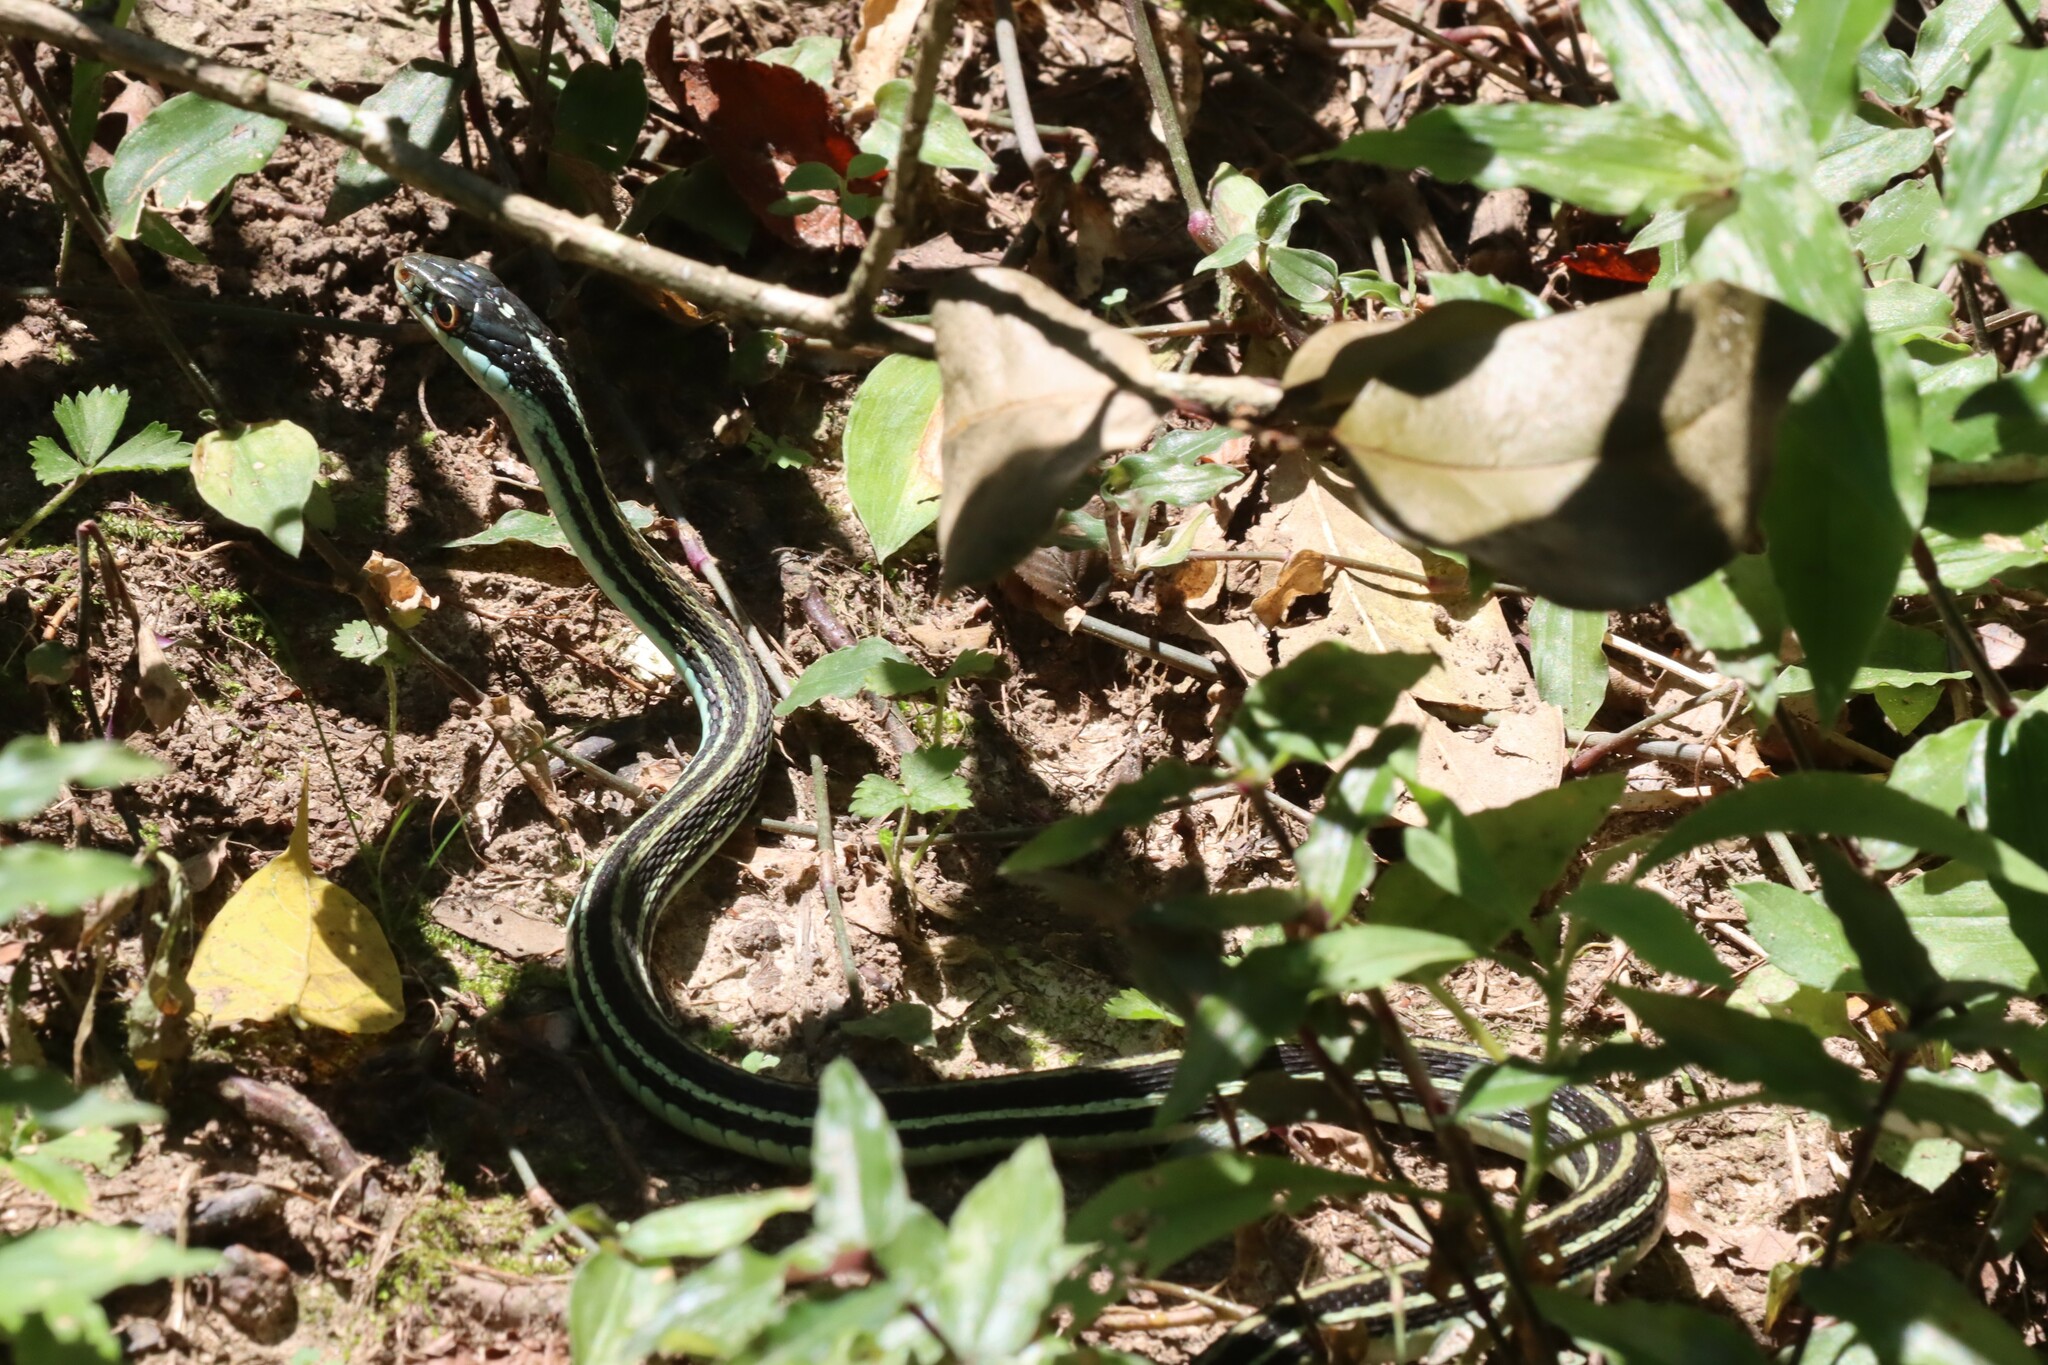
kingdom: Animalia
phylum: Chordata
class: Squamata
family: Colubridae
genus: Thamnophis
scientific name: Thamnophis proximus
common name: Western ribbon snake
